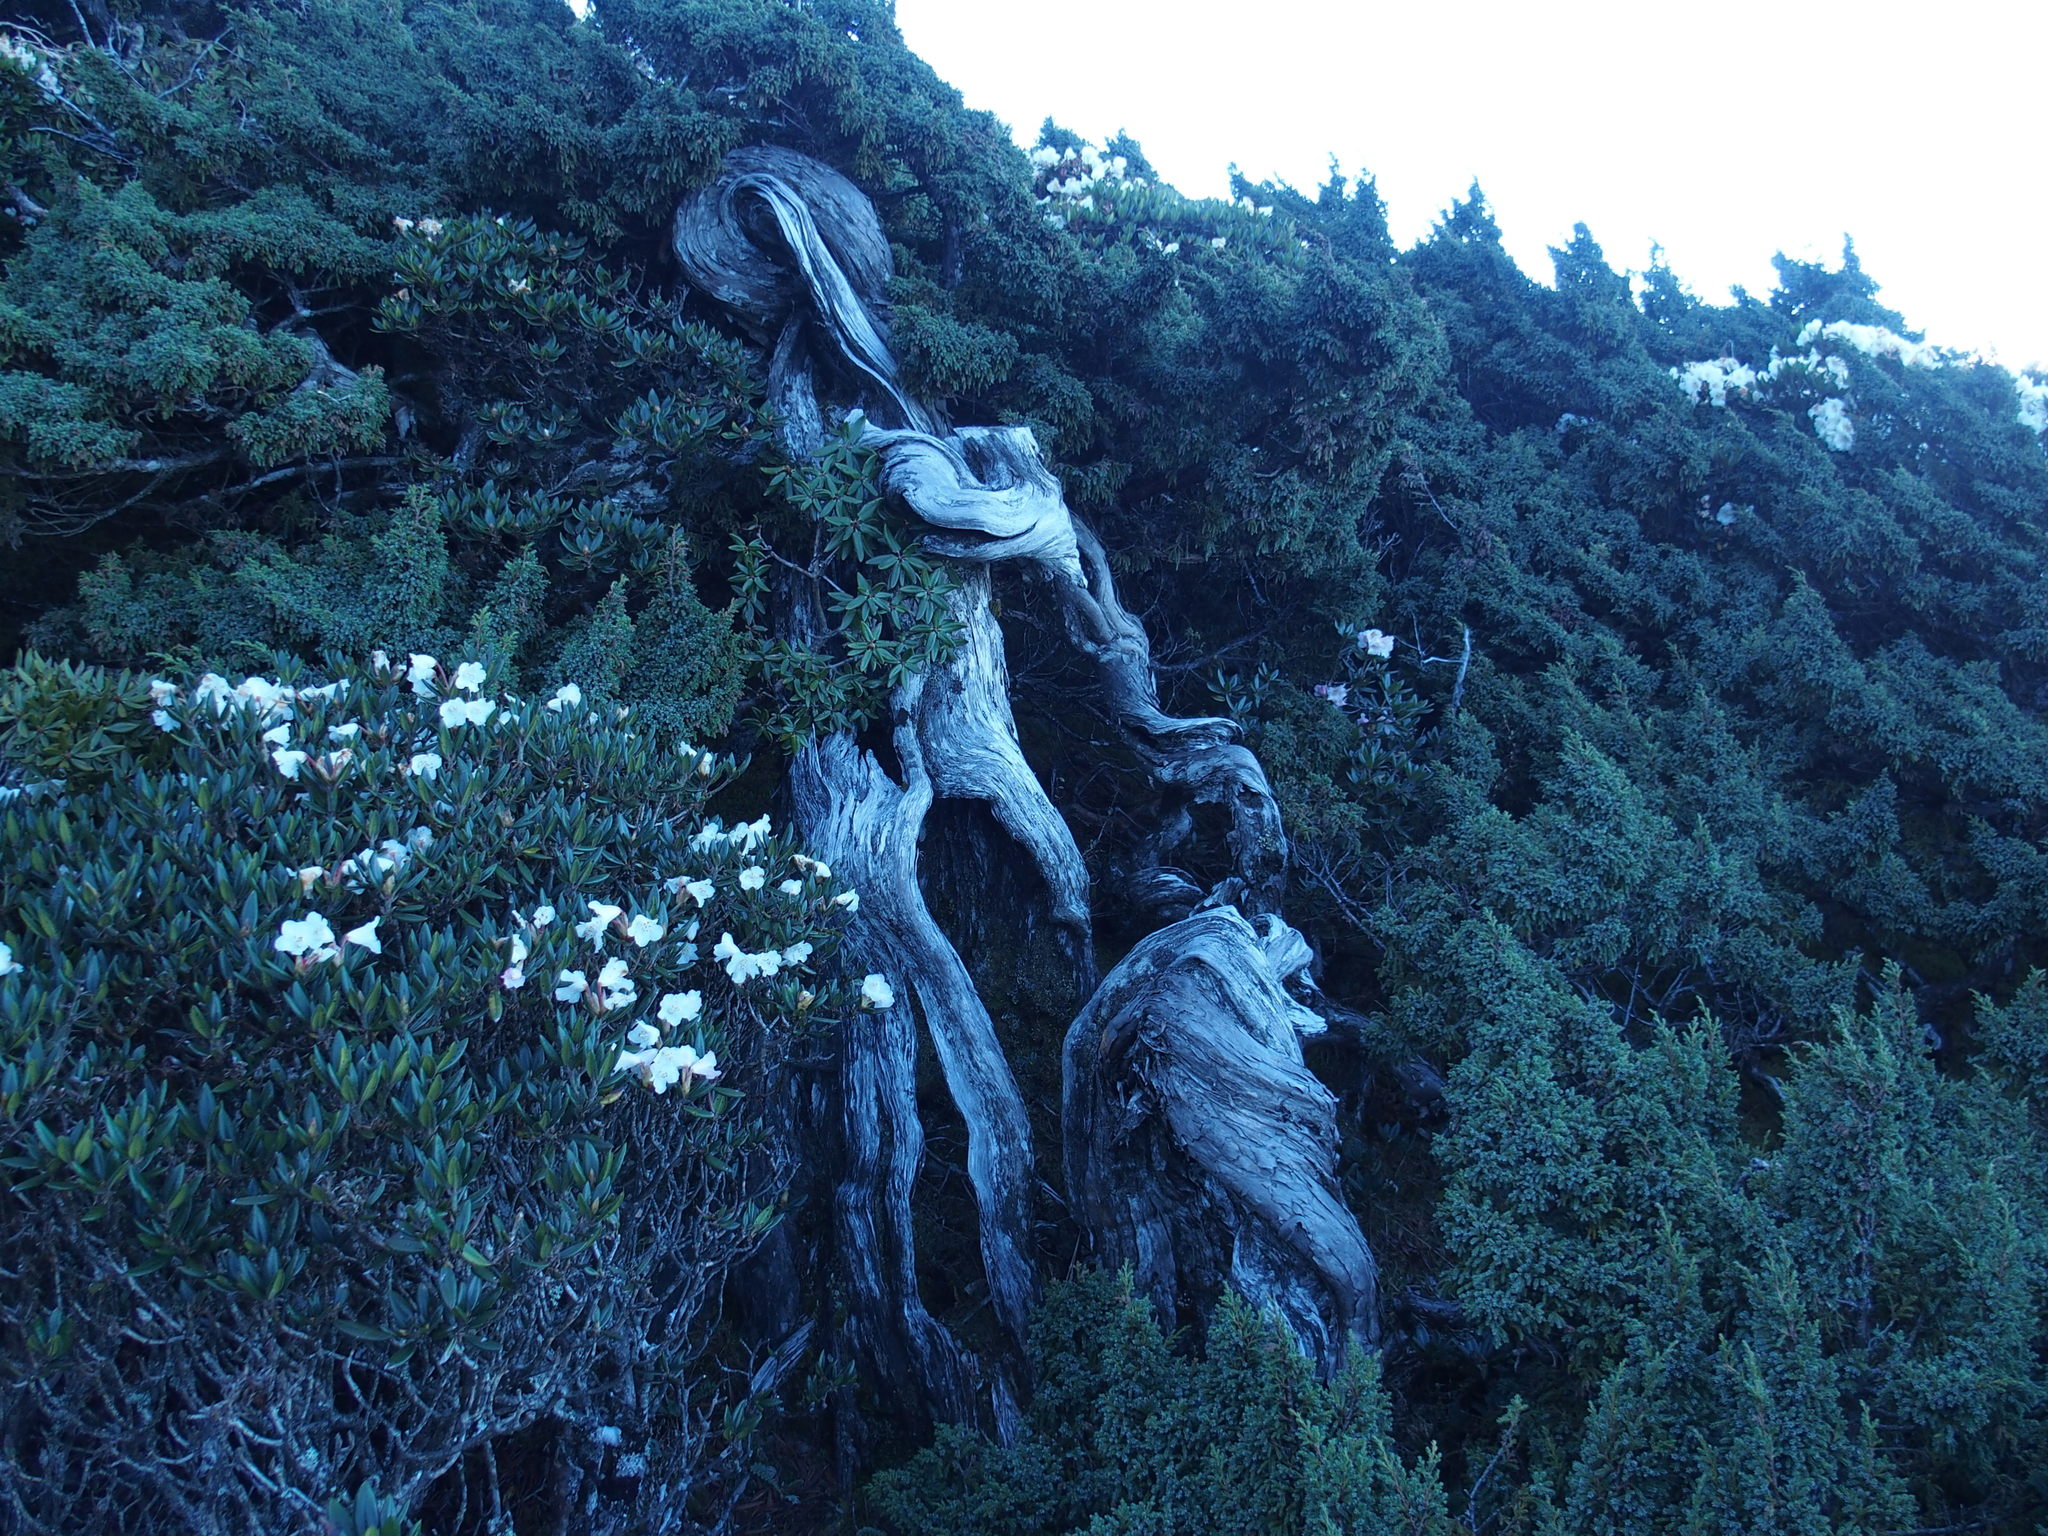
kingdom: Plantae
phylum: Tracheophyta
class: Pinopsida
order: Pinales
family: Cupressaceae
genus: Juniperus
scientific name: Juniperus squamata
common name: Flaky juniper
